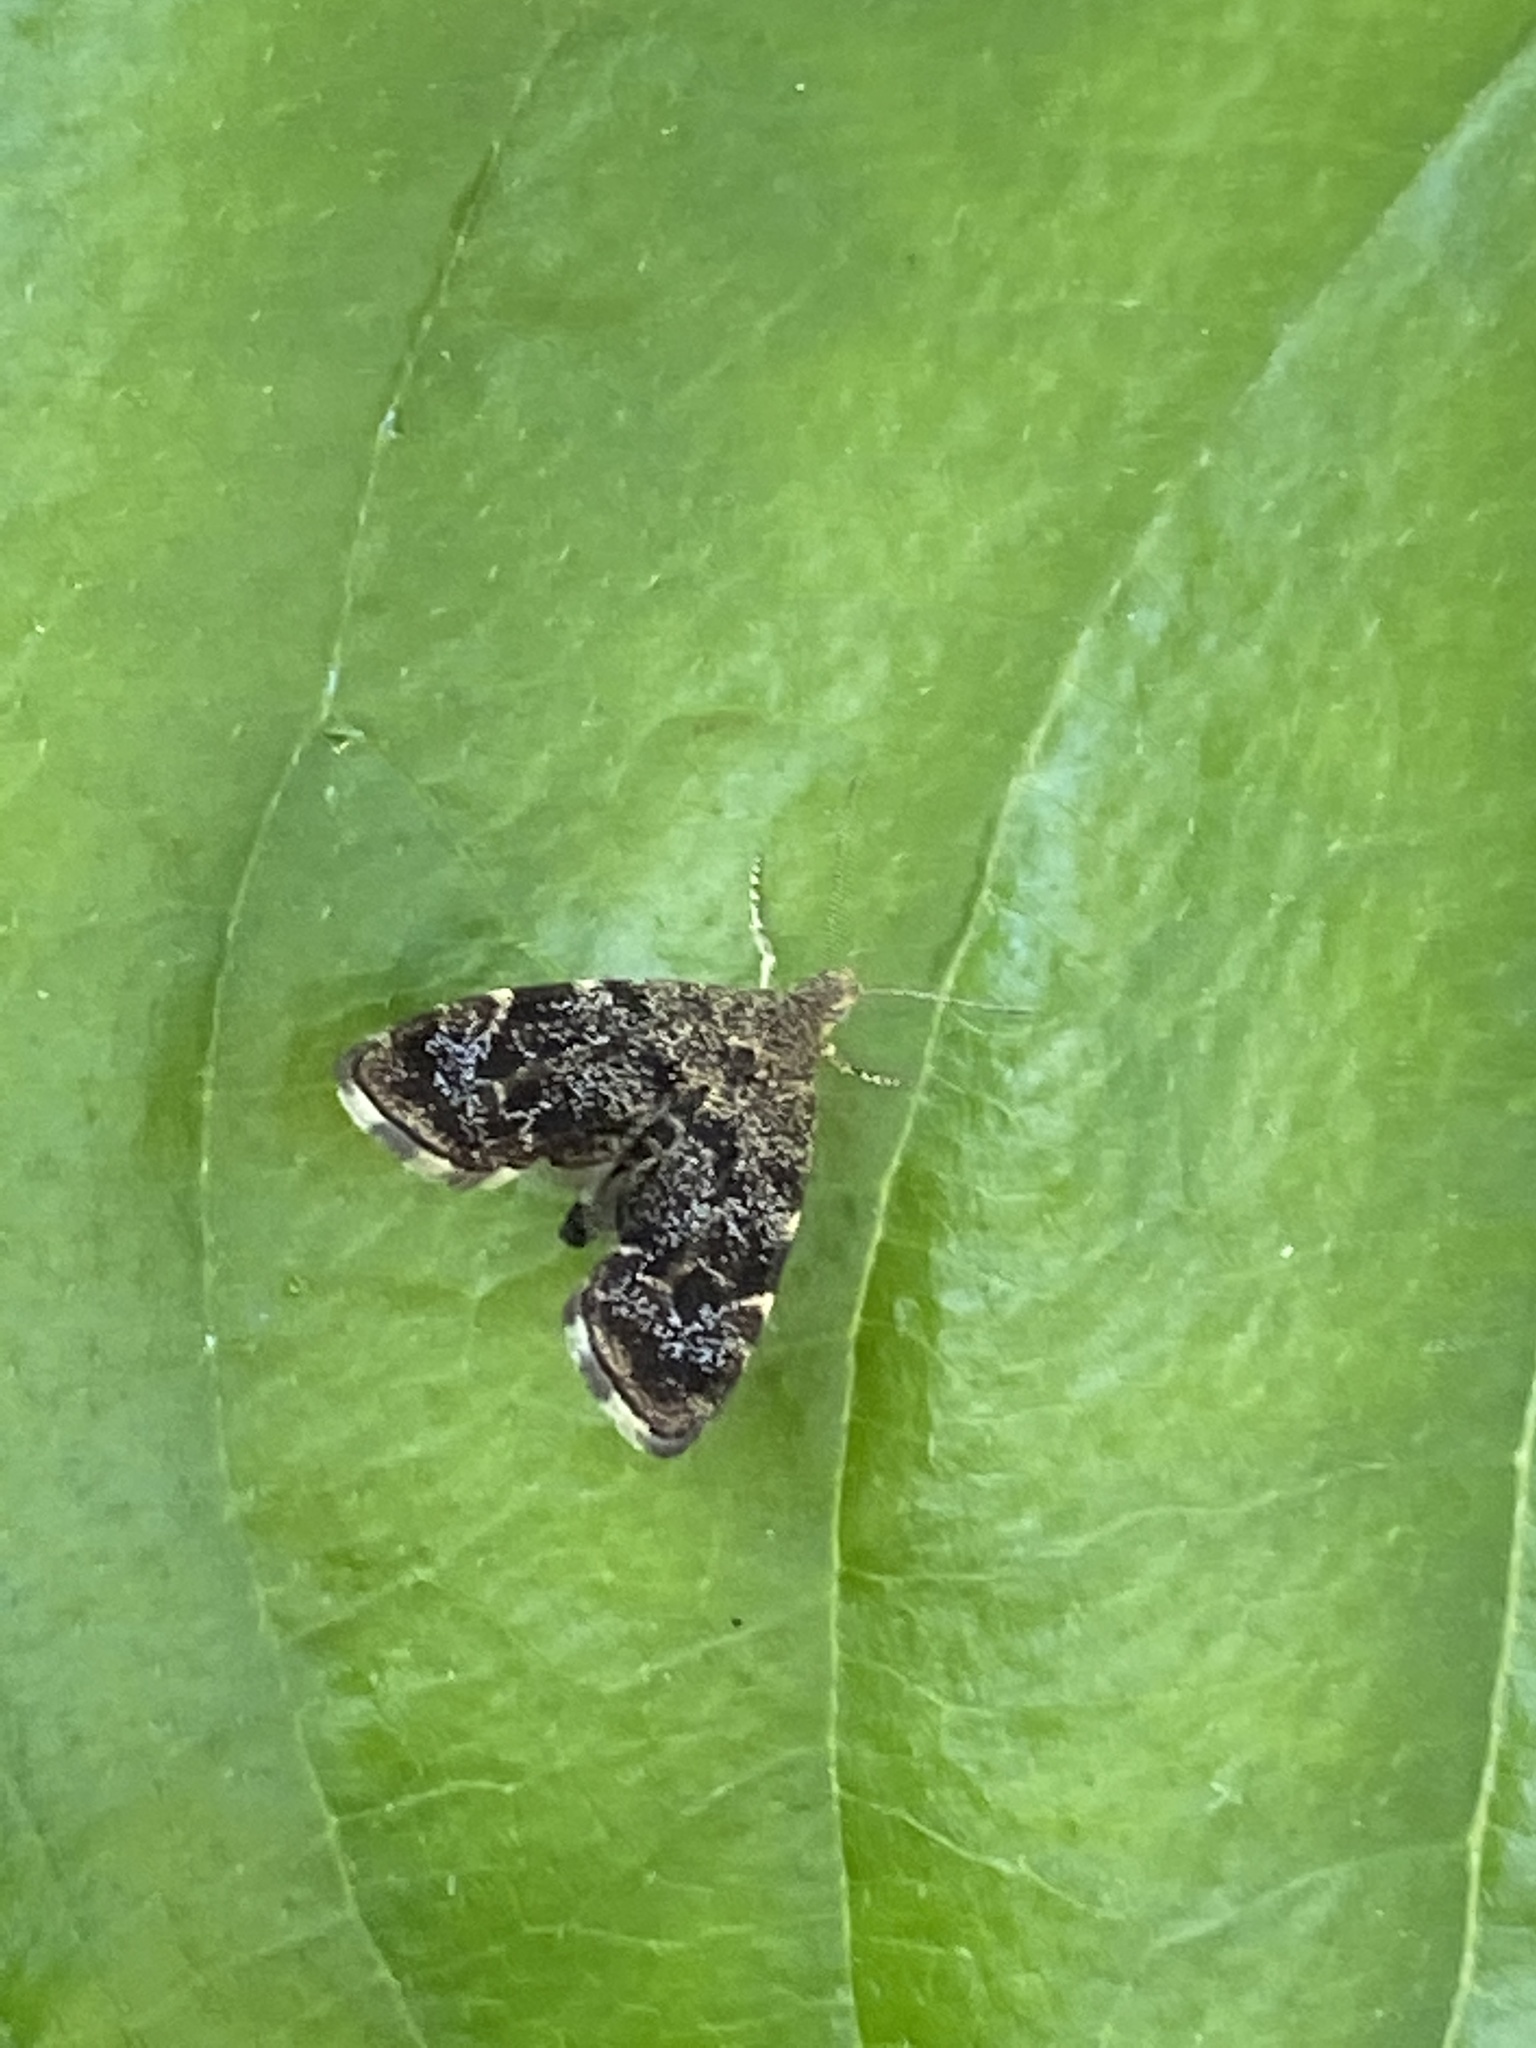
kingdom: Animalia
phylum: Arthropoda
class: Insecta
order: Lepidoptera
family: Choreutidae
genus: Anthophila
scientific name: Anthophila fabriciana
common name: Nettle-tap
